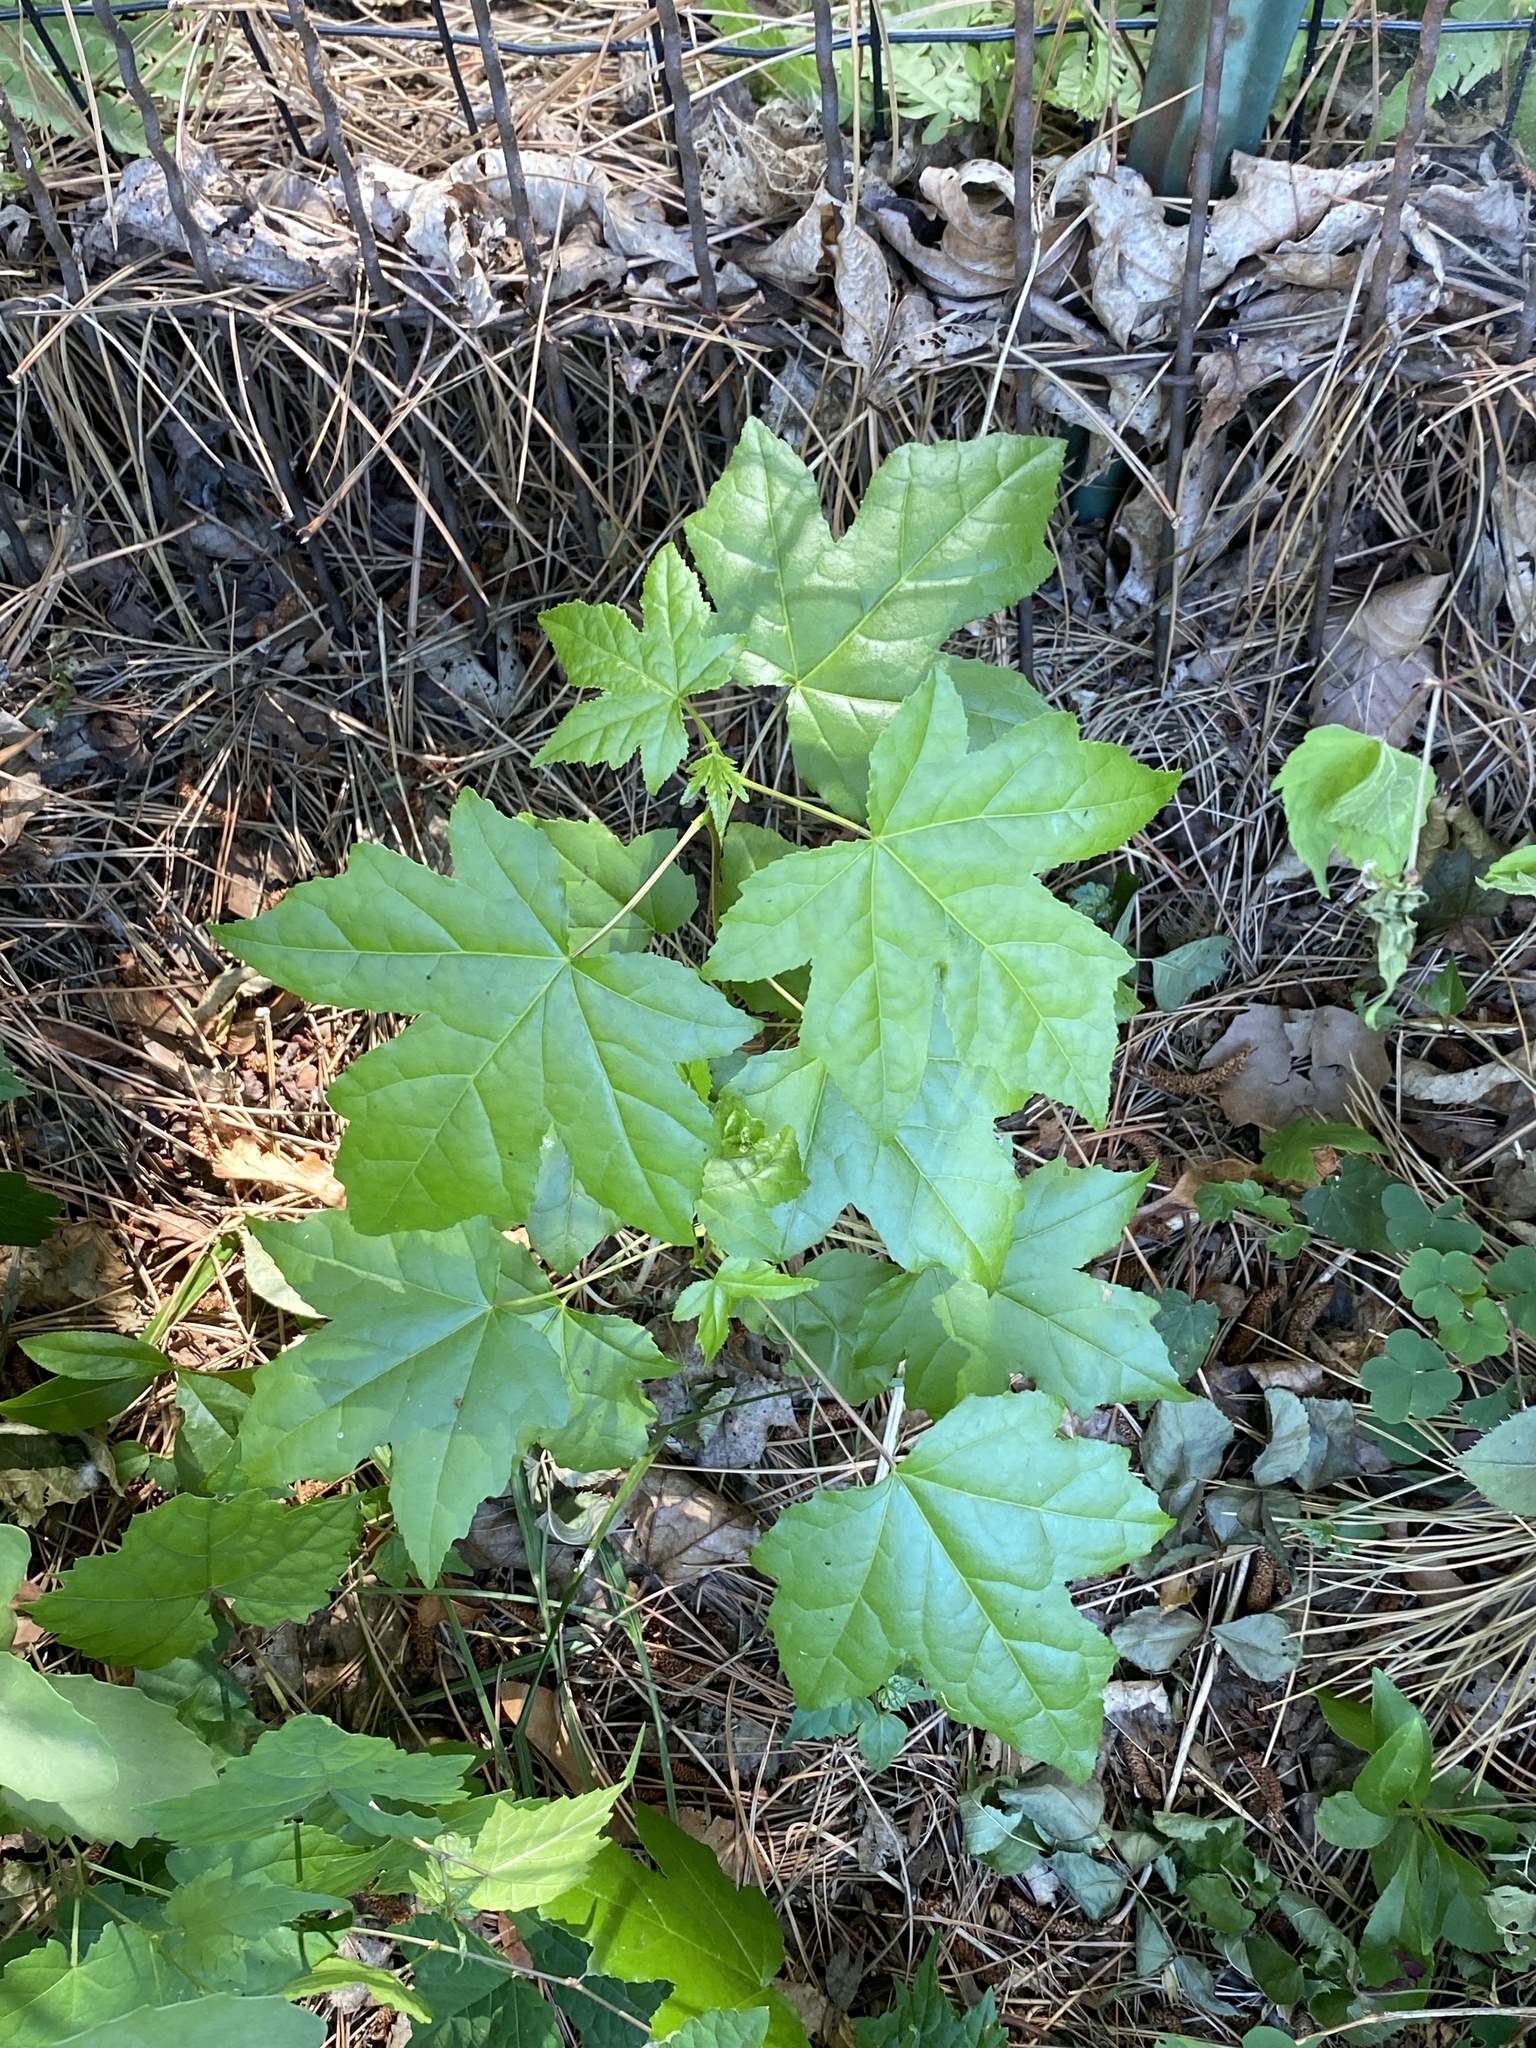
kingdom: Plantae
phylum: Tracheophyta
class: Magnoliopsida
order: Saxifragales
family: Altingiaceae
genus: Liquidambar
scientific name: Liquidambar styraciflua
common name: Sweet gum
